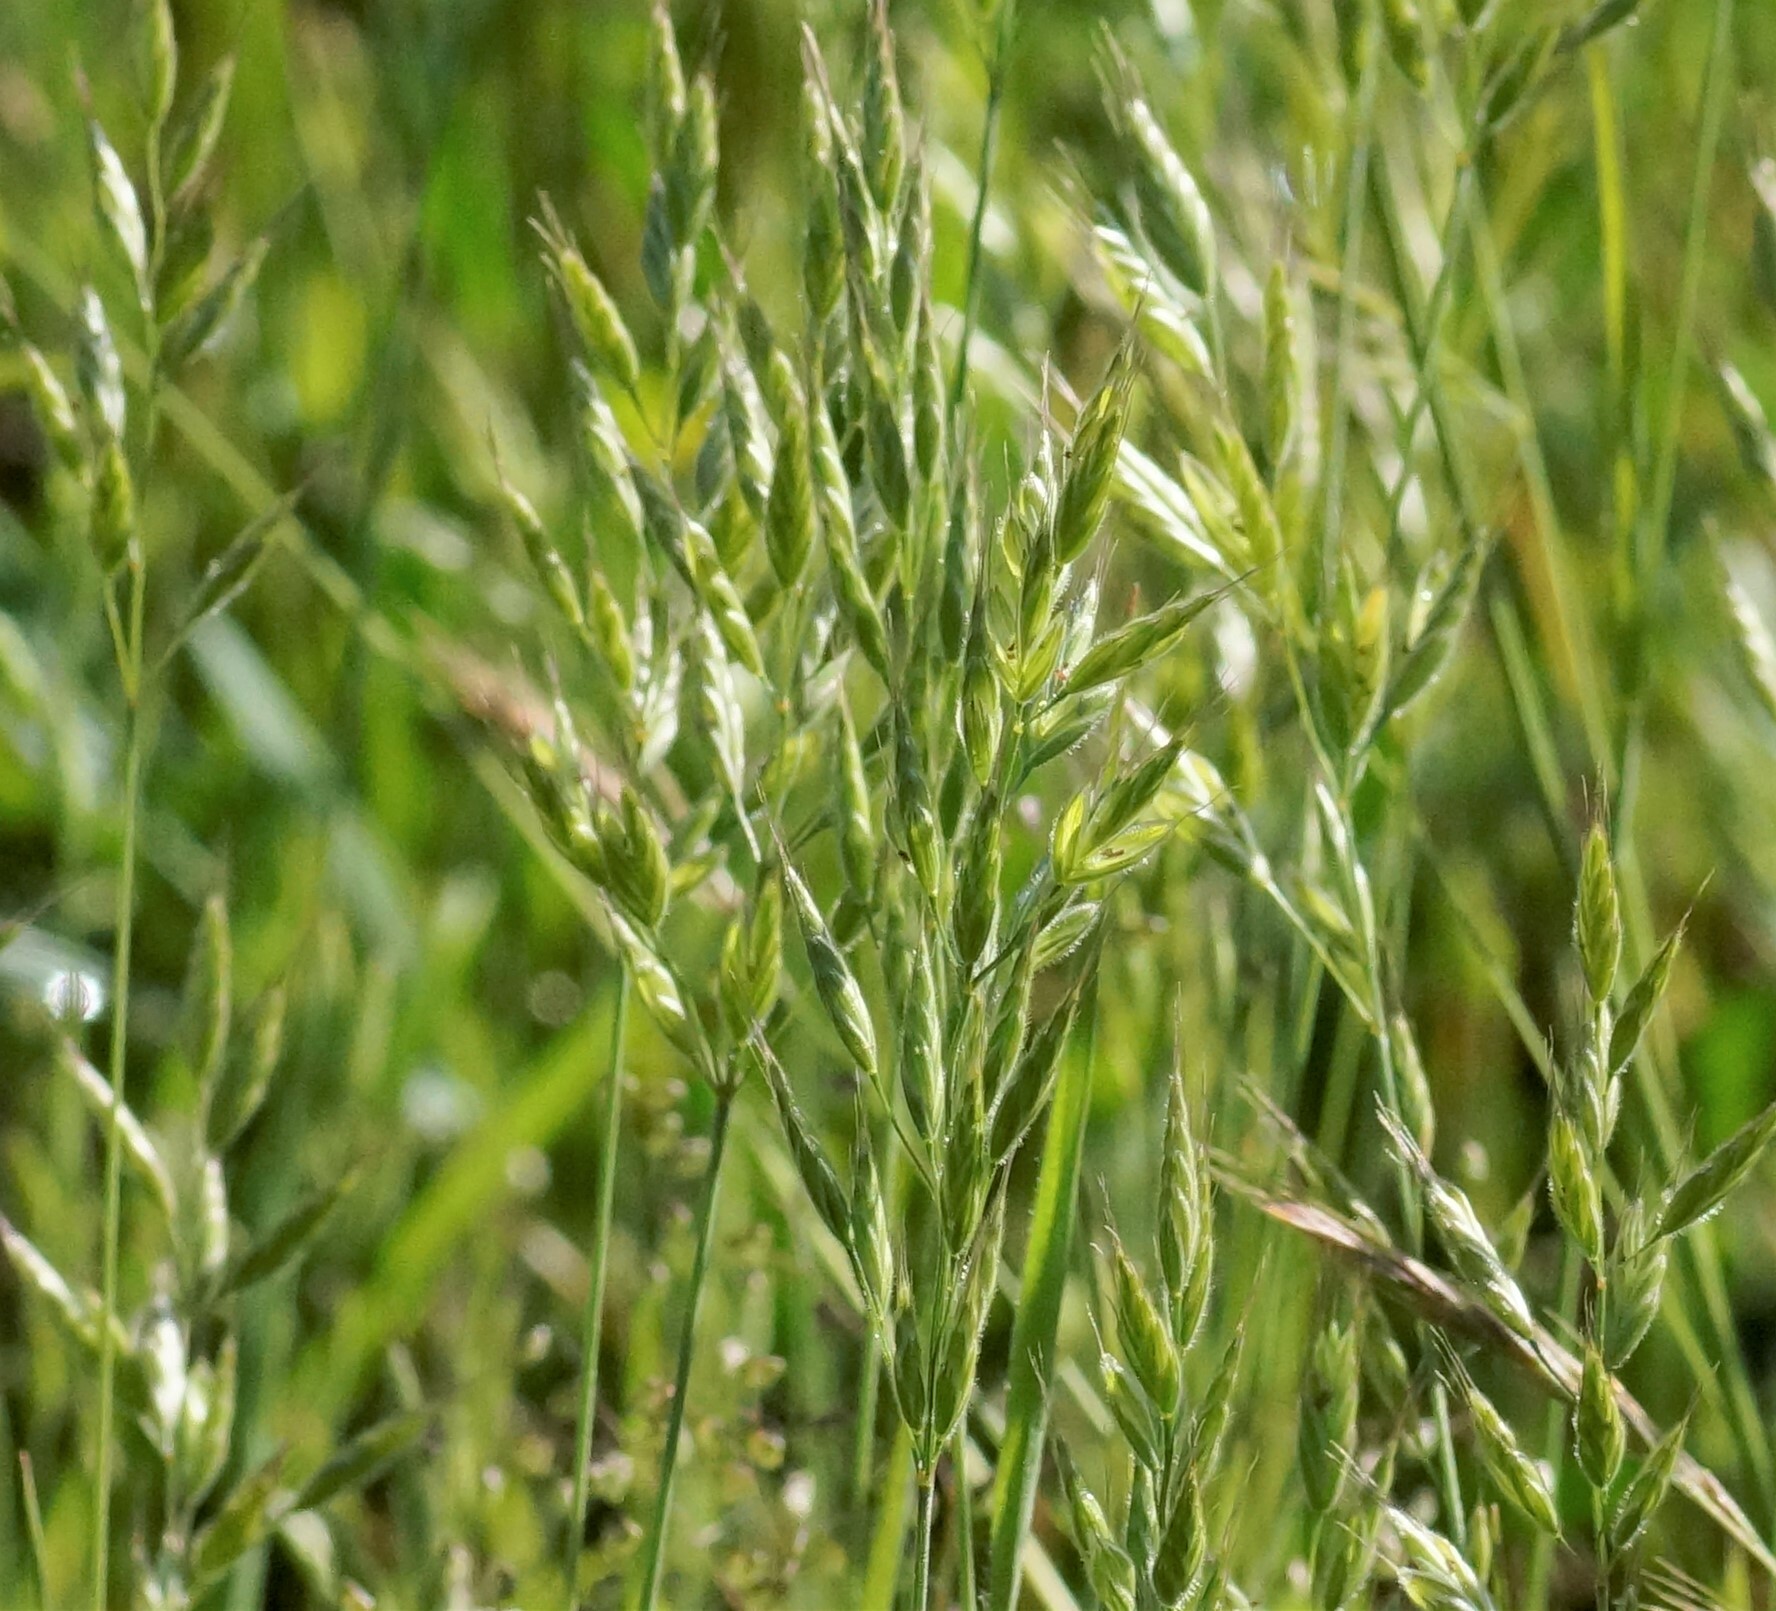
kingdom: Plantae
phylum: Tracheophyta
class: Liliopsida
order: Poales
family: Poaceae
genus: Bromus
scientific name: Bromus hordeaceus
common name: Soft brome
